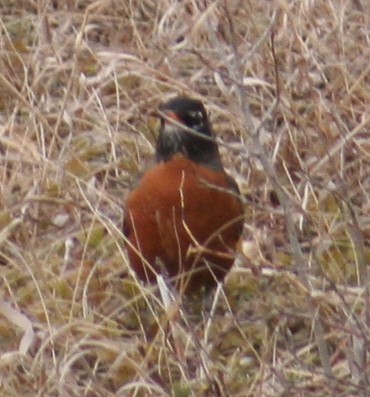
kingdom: Animalia
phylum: Chordata
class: Aves
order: Passeriformes
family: Turdidae
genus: Turdus
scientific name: Turdus migratorius
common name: American robin
